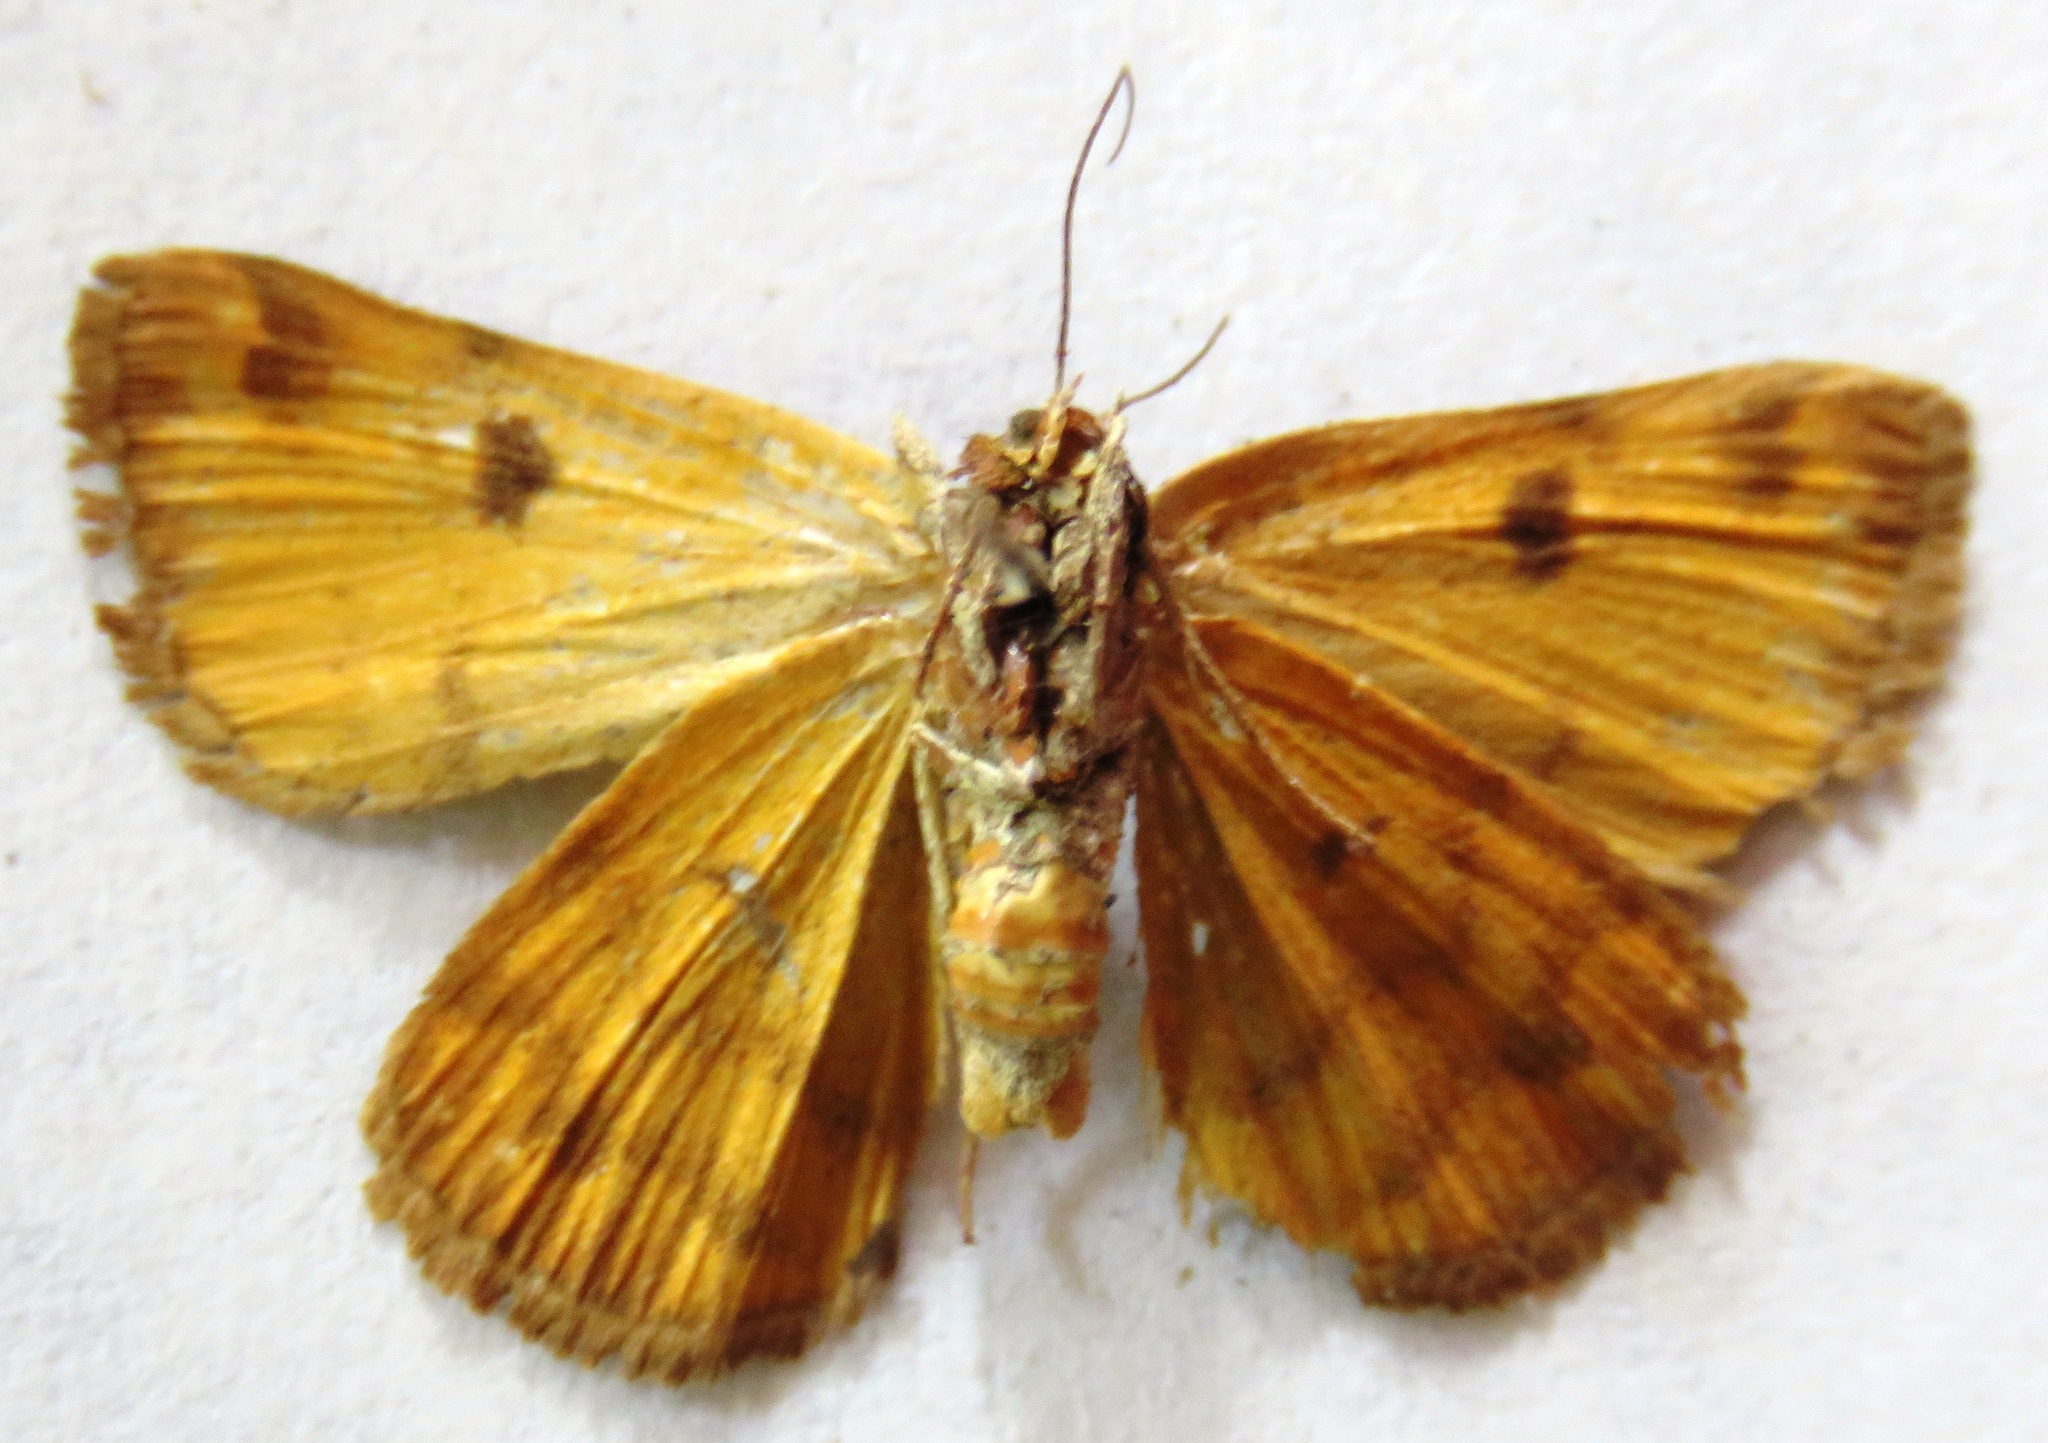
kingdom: Animalia
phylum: Arthropoda
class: Insecta
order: Lepidoptera
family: Erebidae
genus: Euclidia
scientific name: Euclidia glyphica
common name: Burnet companion
